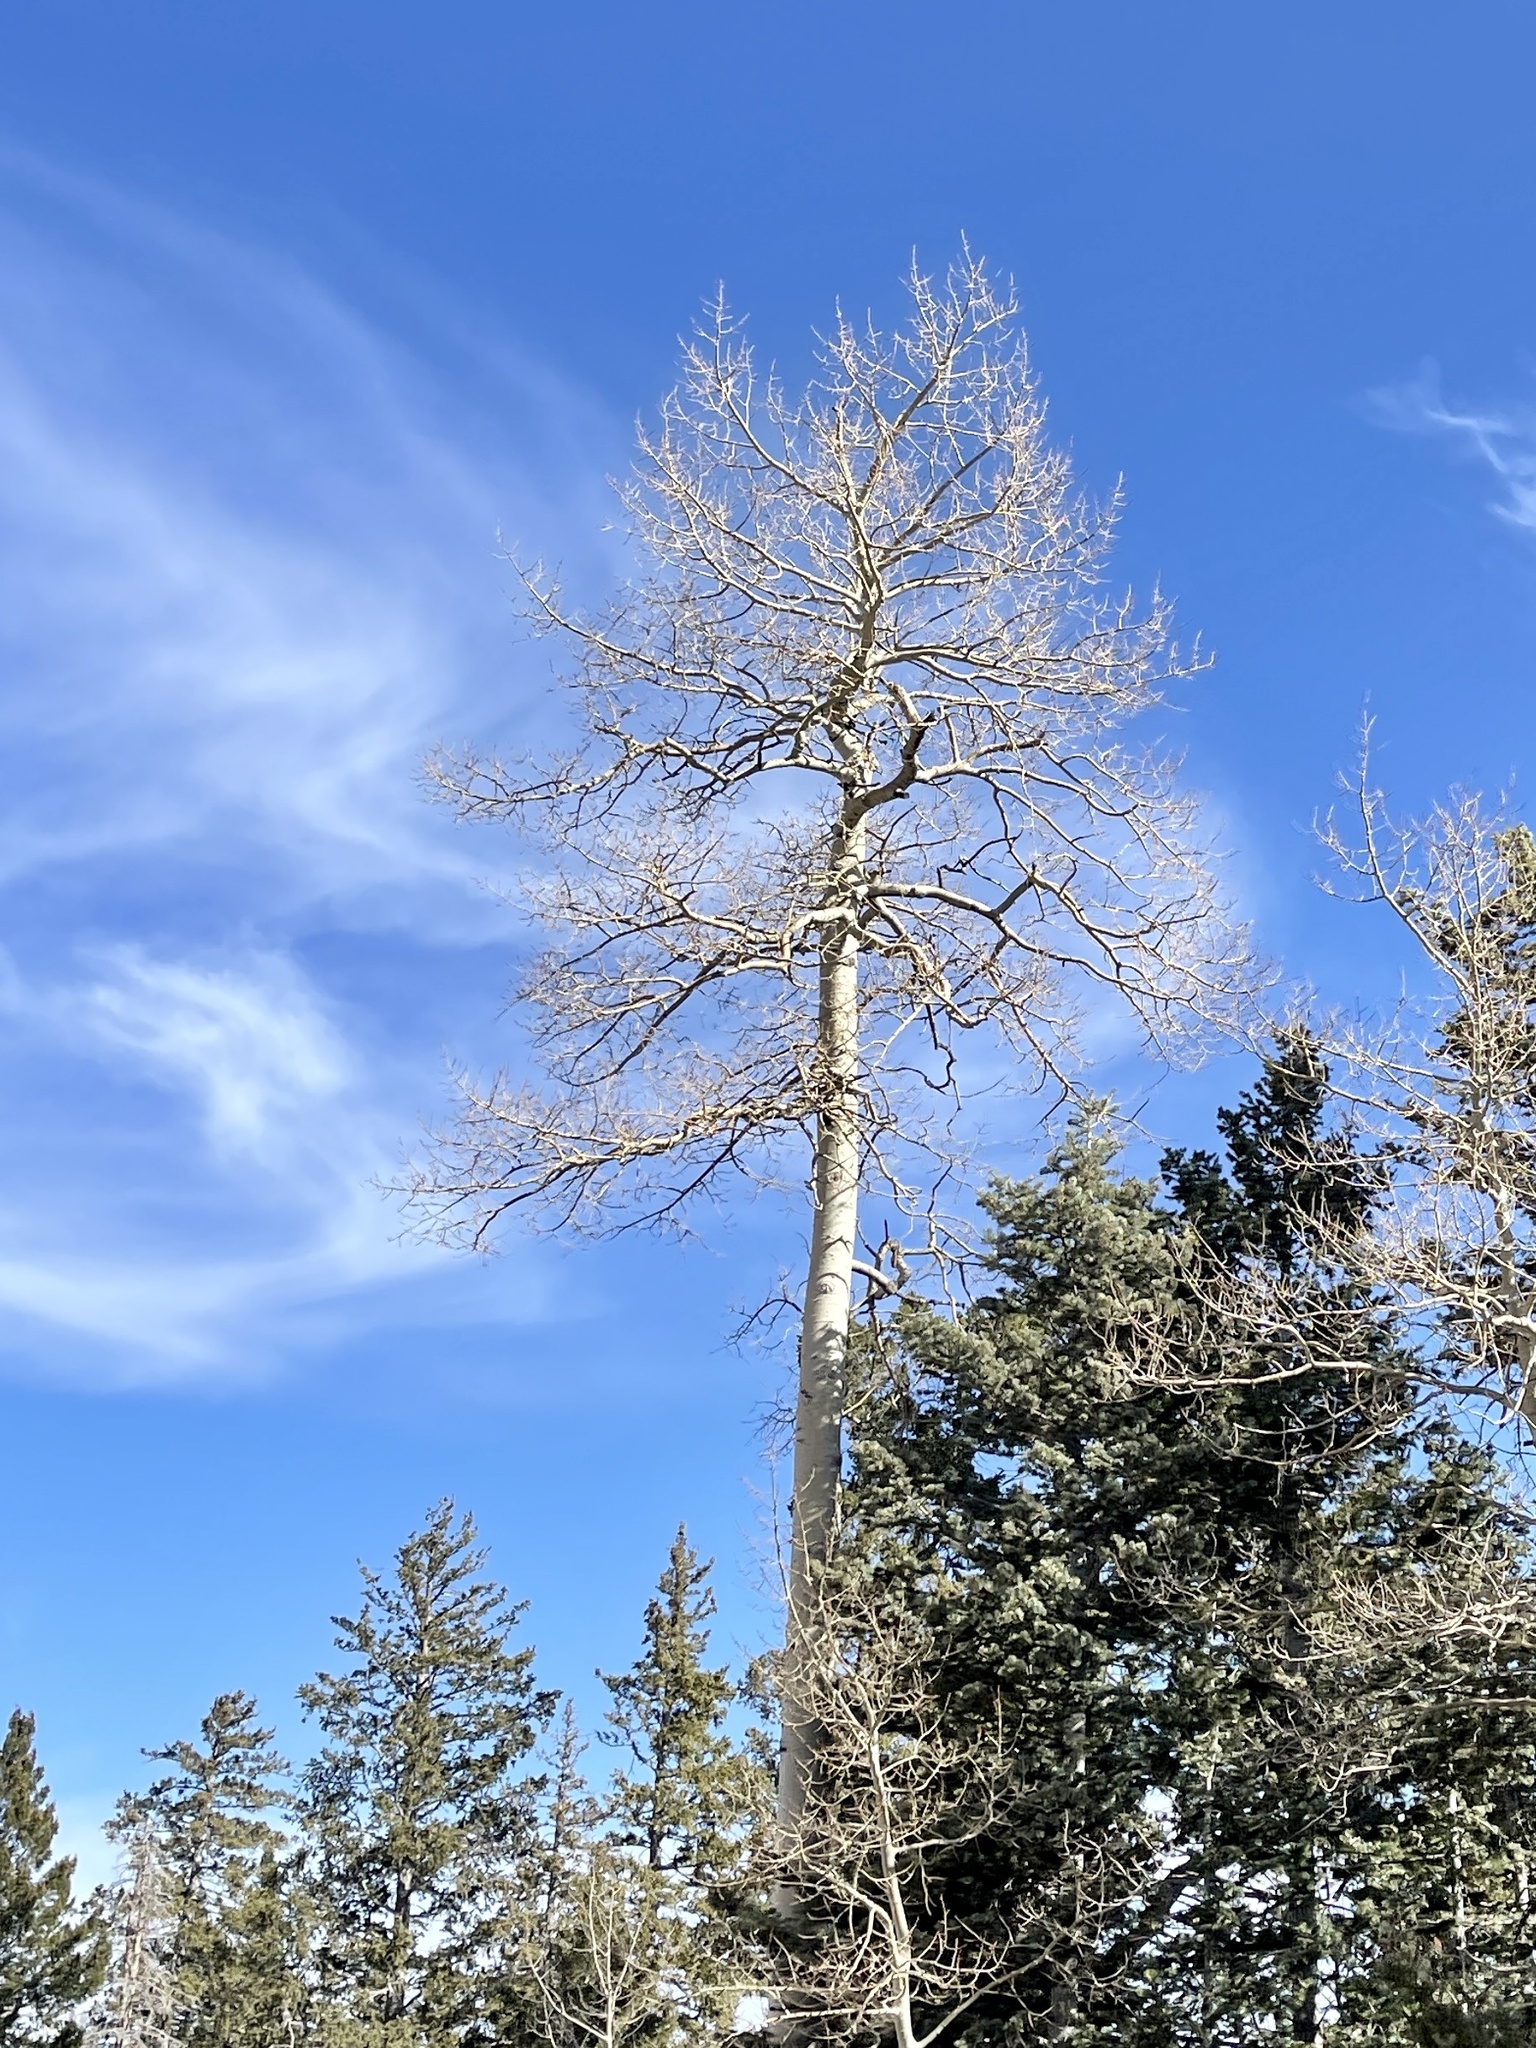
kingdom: Plantae
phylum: Tracheophyta
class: Magnoliopsida
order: Malpighiales
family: Salicaceae
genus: Populus
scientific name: Populus tremuloides
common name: Quaking aspen
